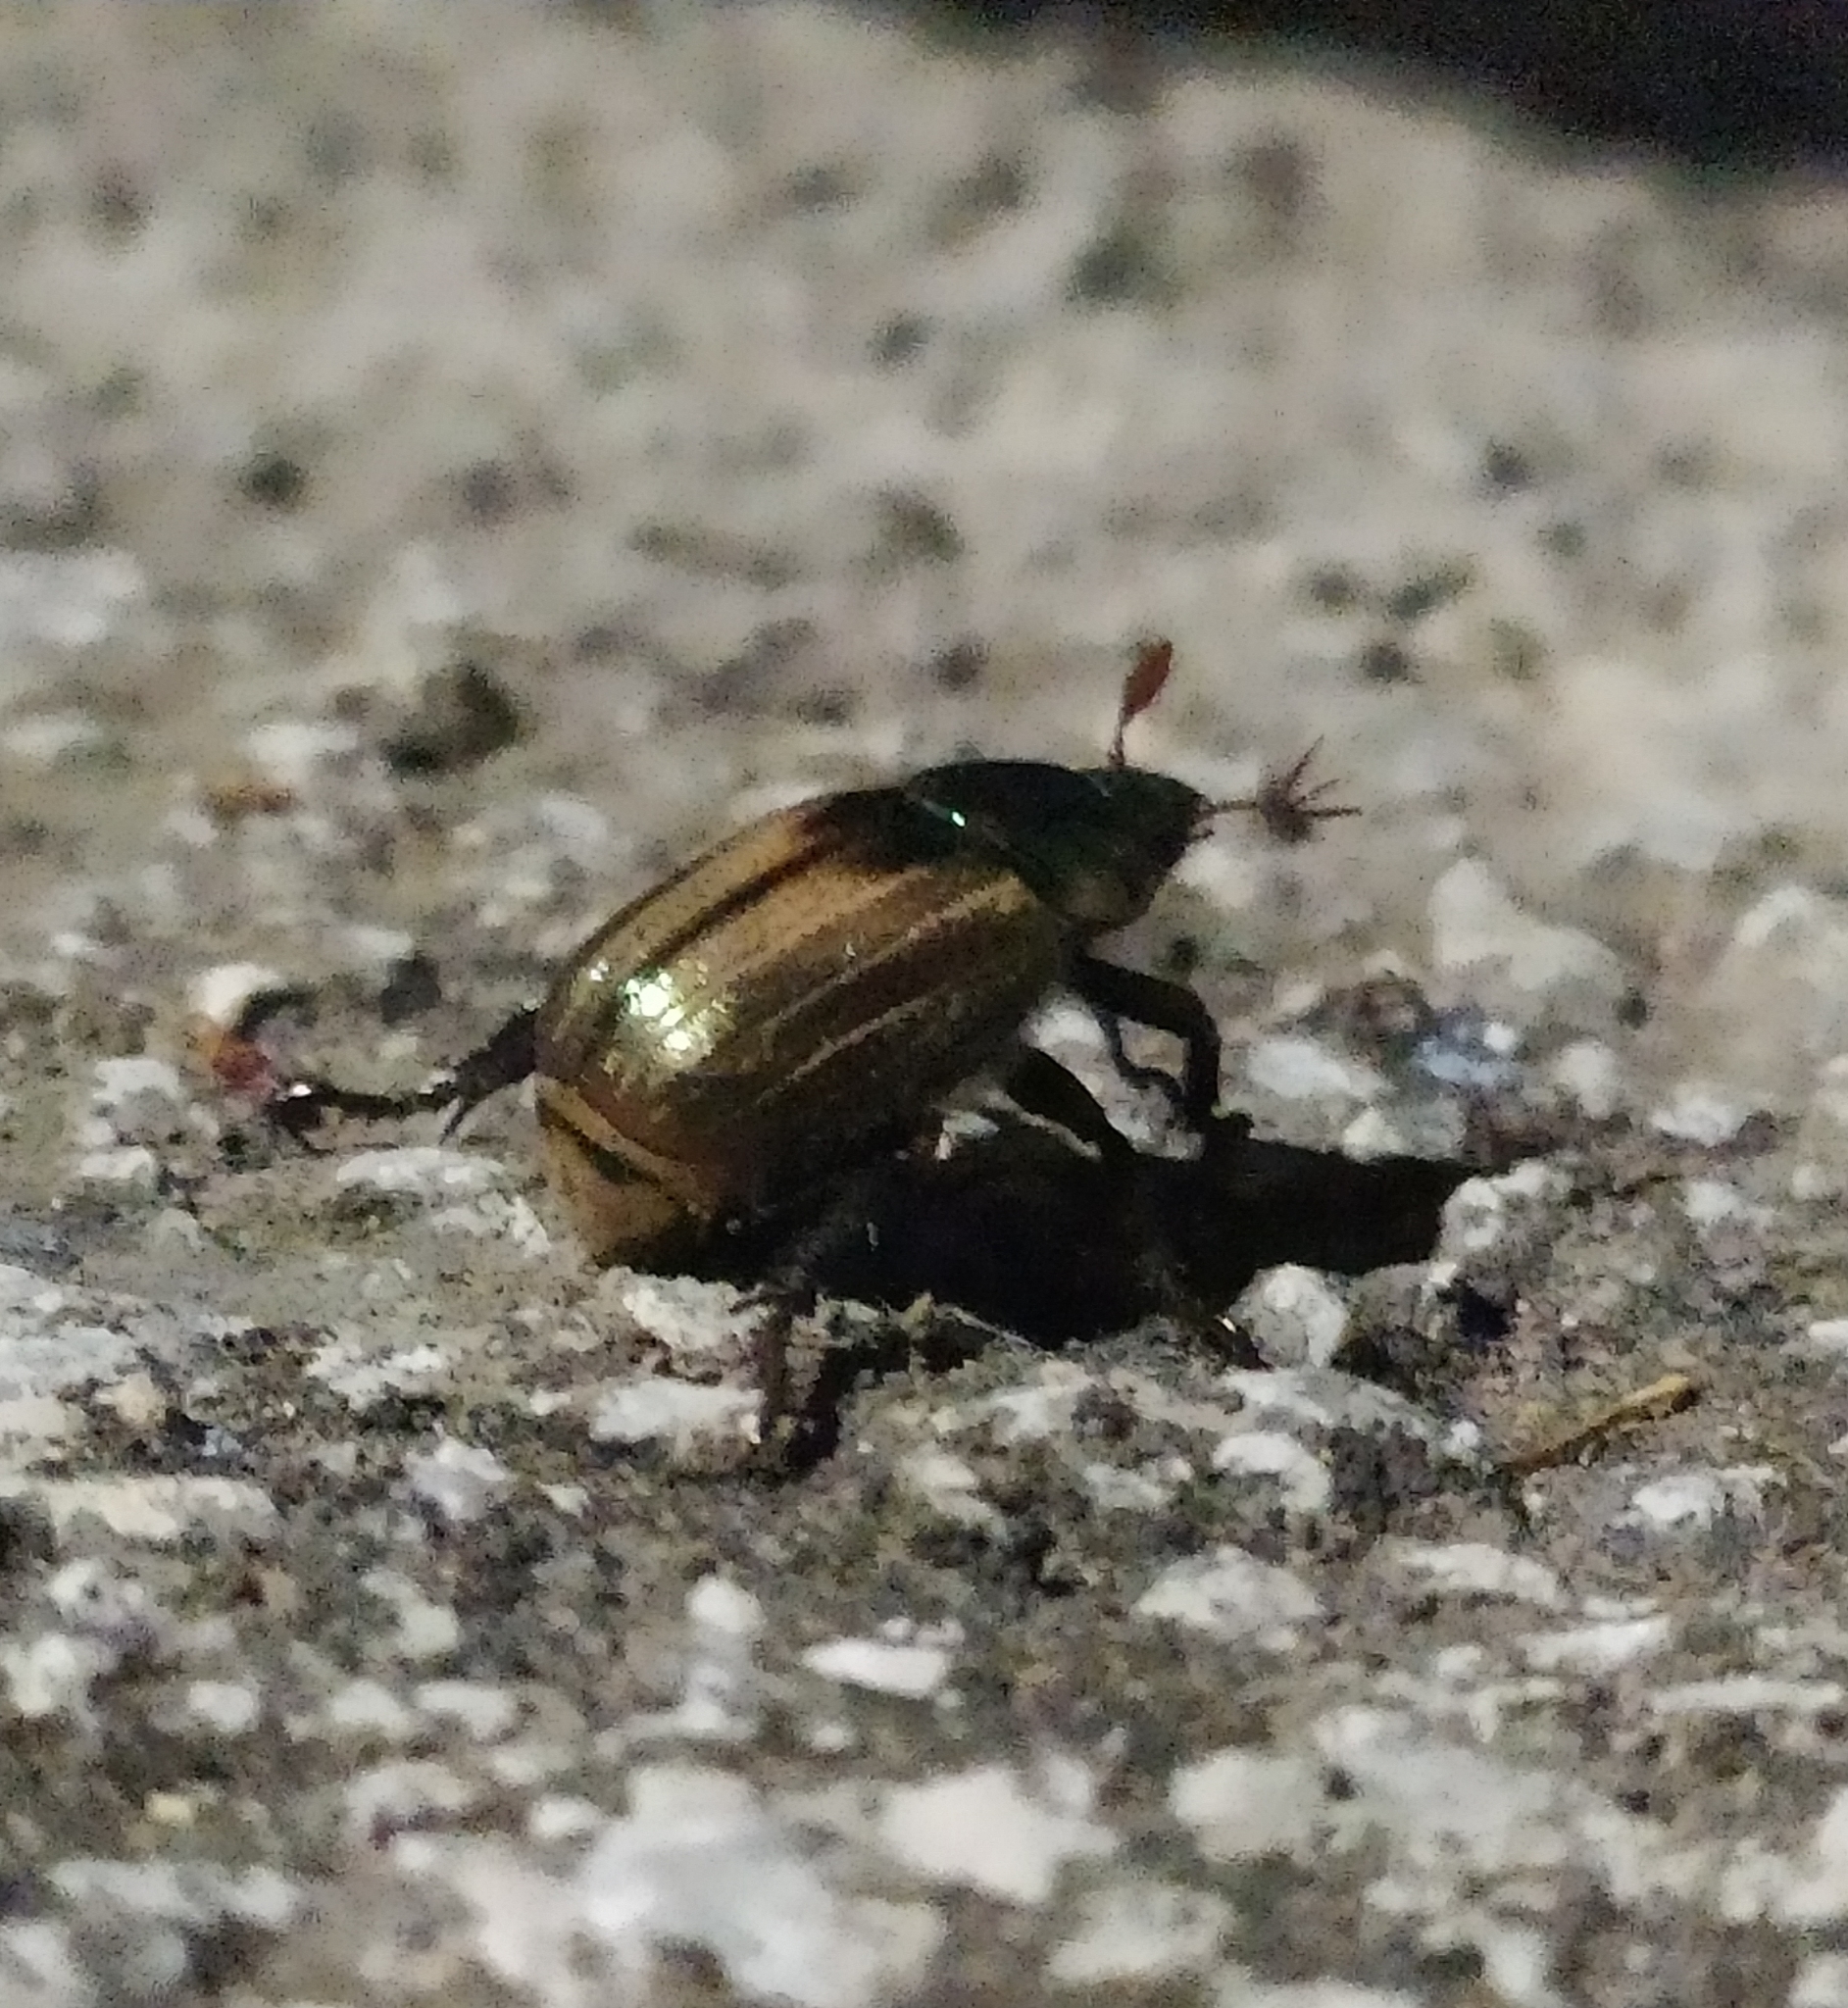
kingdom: Animalia
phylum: Arthropoda
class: Insecta
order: Coleoptera
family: Scarabaeidae
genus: Mimela
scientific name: Mimela junii
